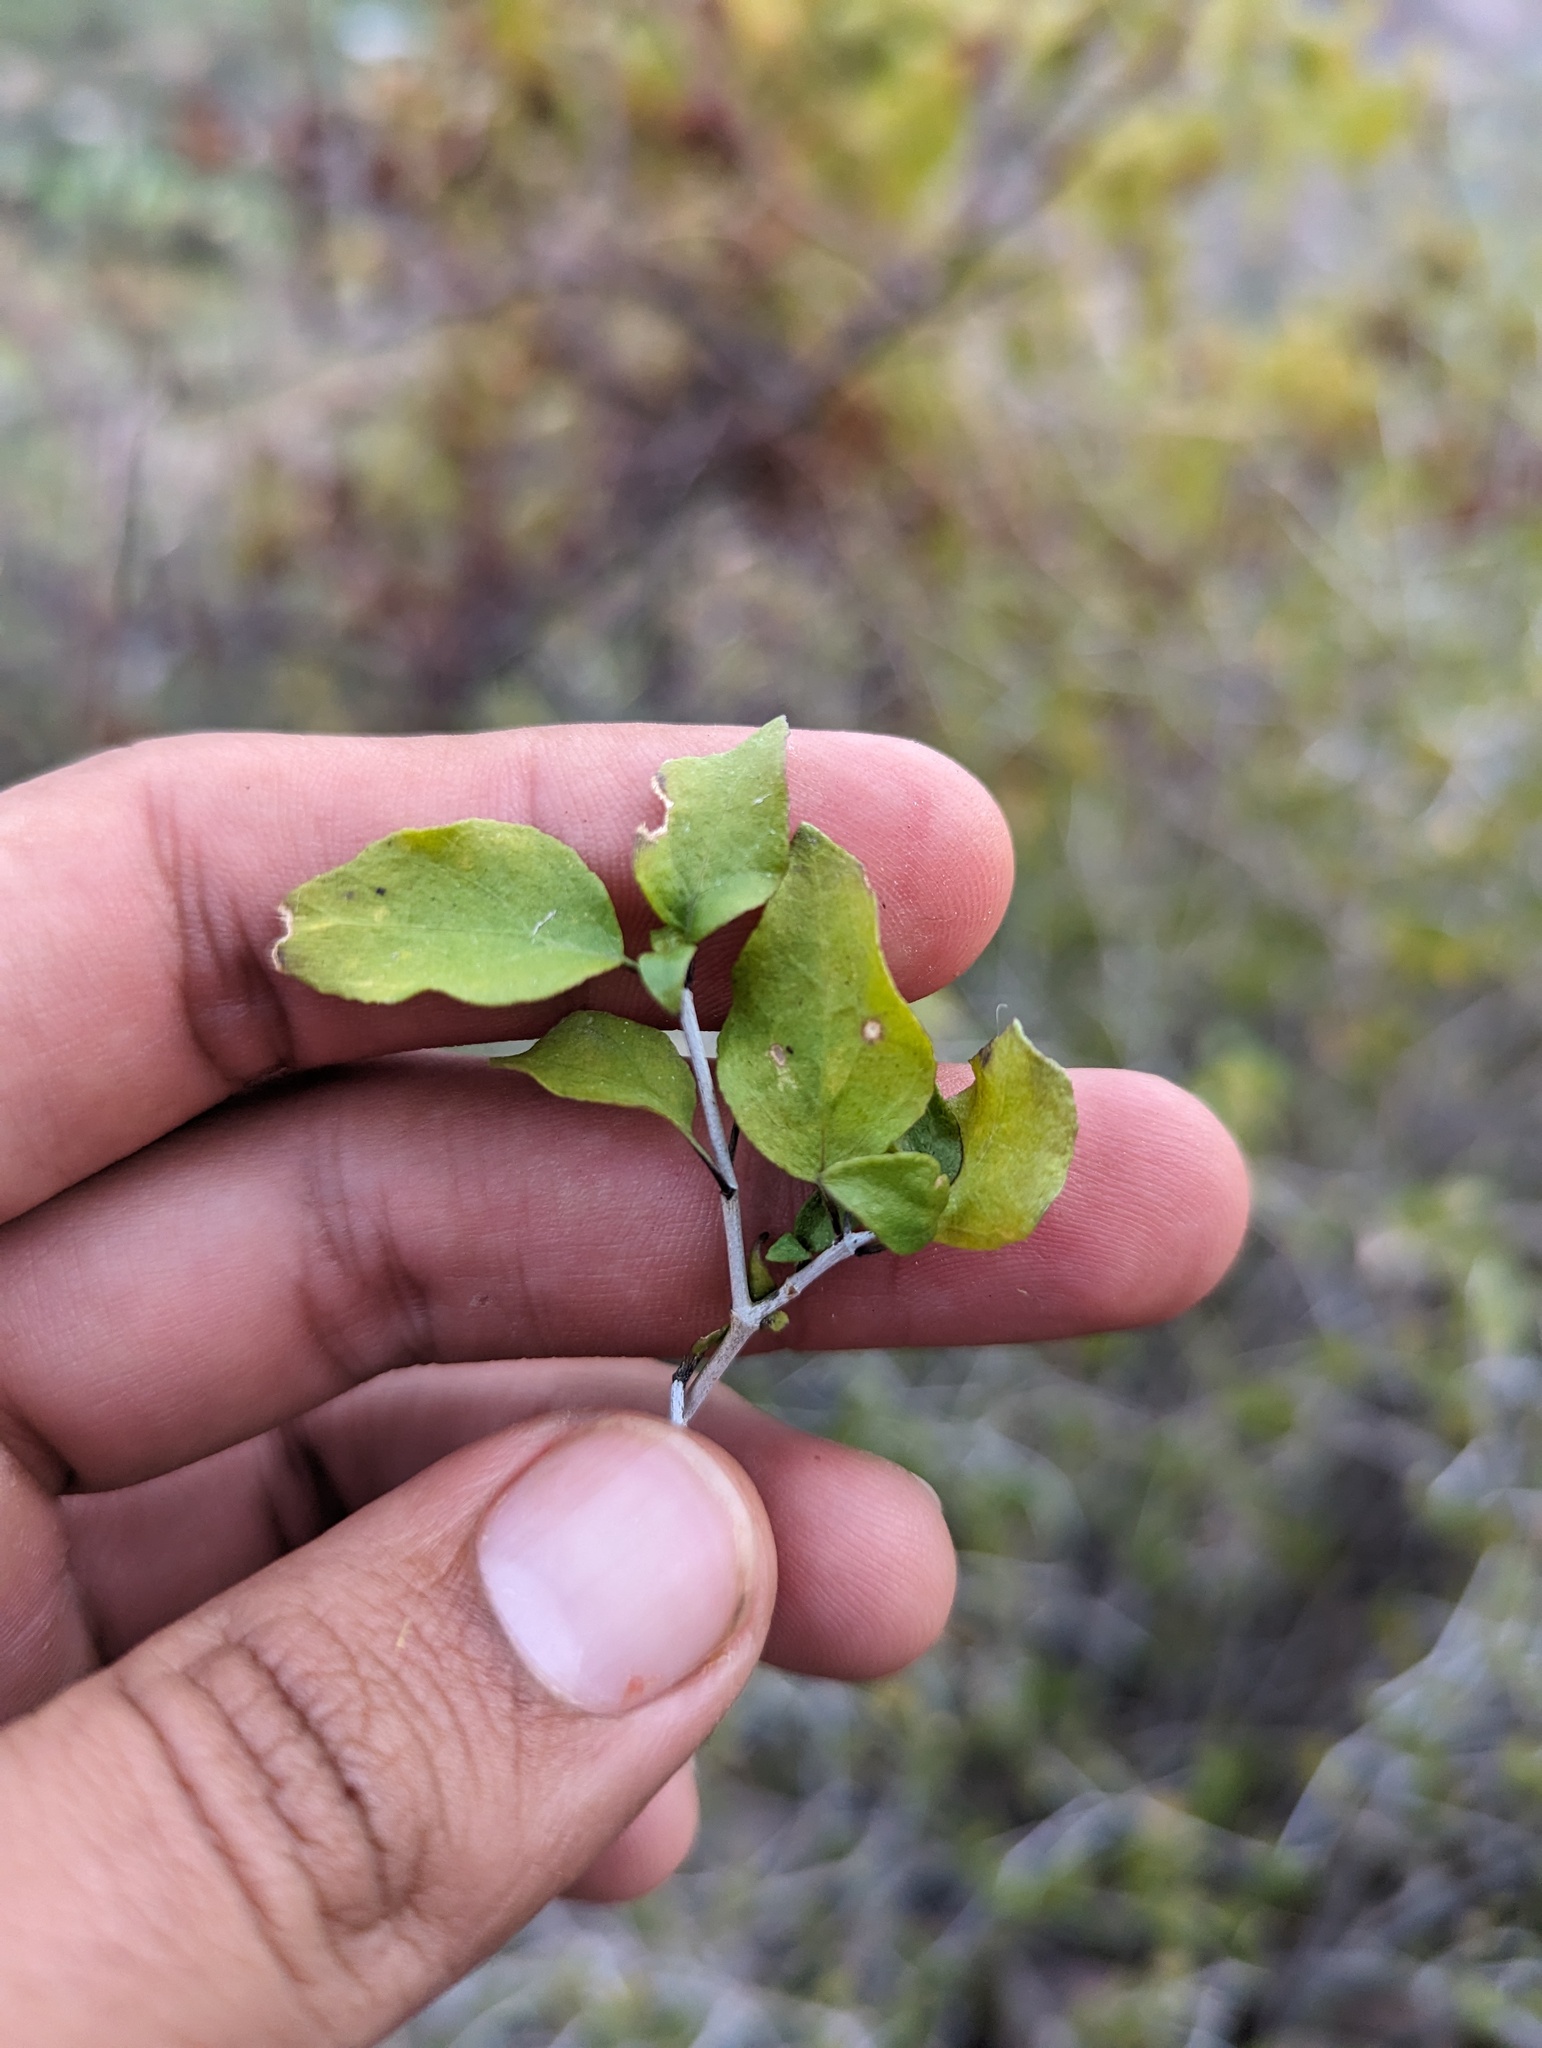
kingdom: Plantae
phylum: Tracheophyta
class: Magnoliopsida
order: Lamiales
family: Acanthaceae
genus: Ruellia
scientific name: Ruellia californica
